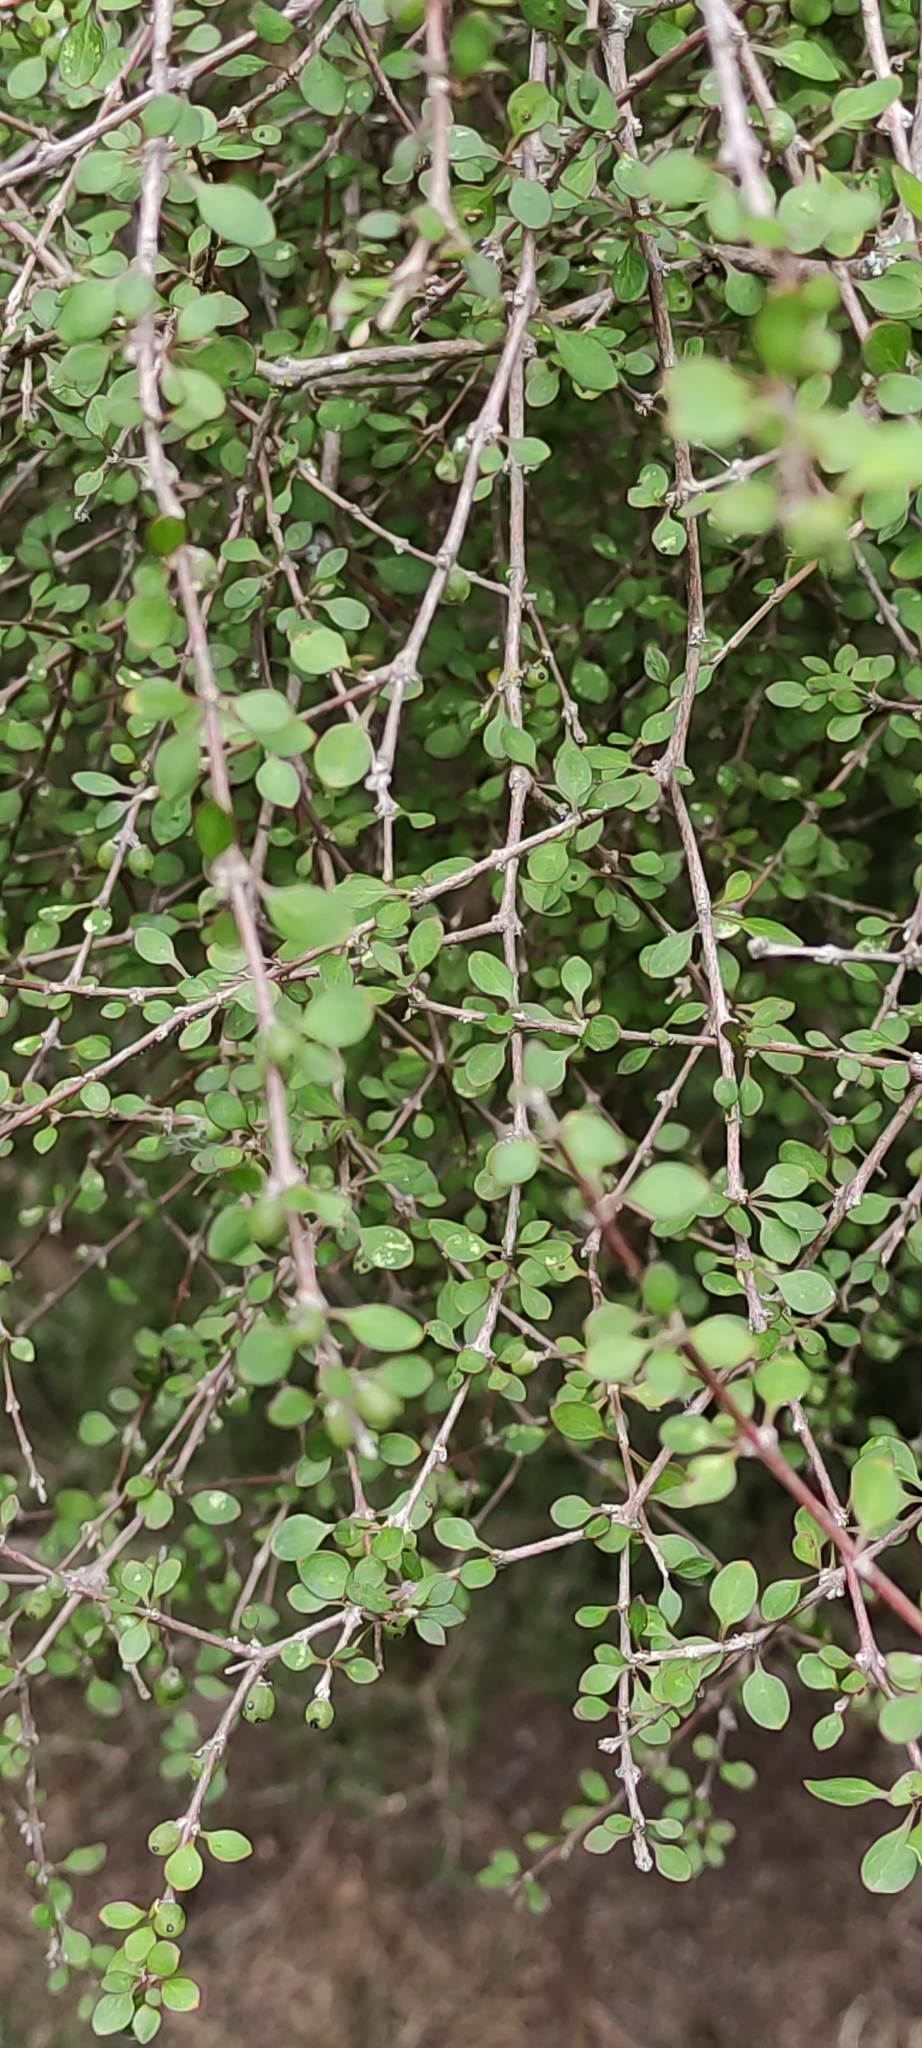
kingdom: Plantae
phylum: Tracheophyta
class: Magnoliopsida
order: Gentianales
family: Rubiaceae
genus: Coprosma
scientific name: Coprosma virescens
